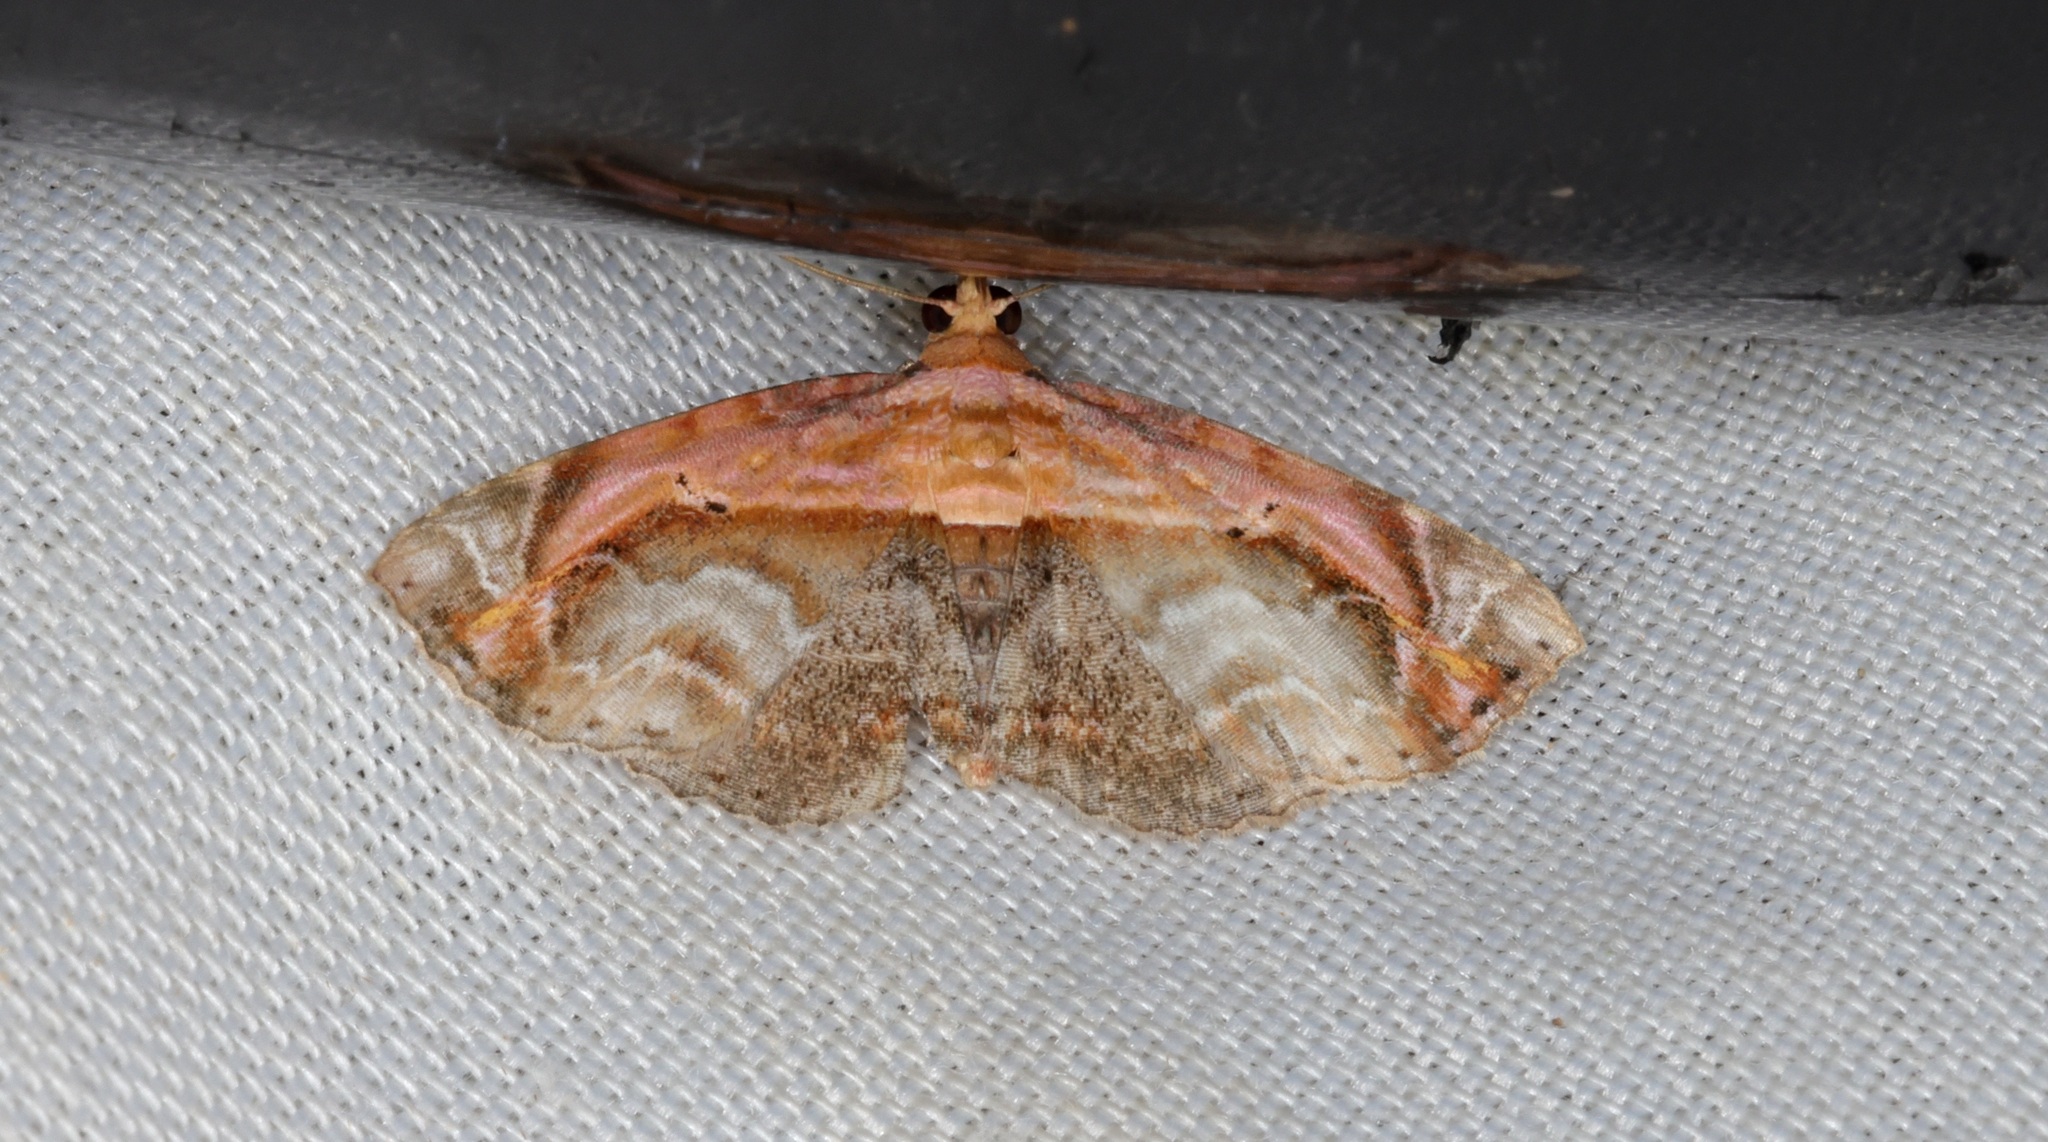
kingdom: Animalia
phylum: Arthropoda
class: Insecta
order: Lepidoptera
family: Noctuidae
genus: Lophoruza
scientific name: Lophoruza pulcherrima
